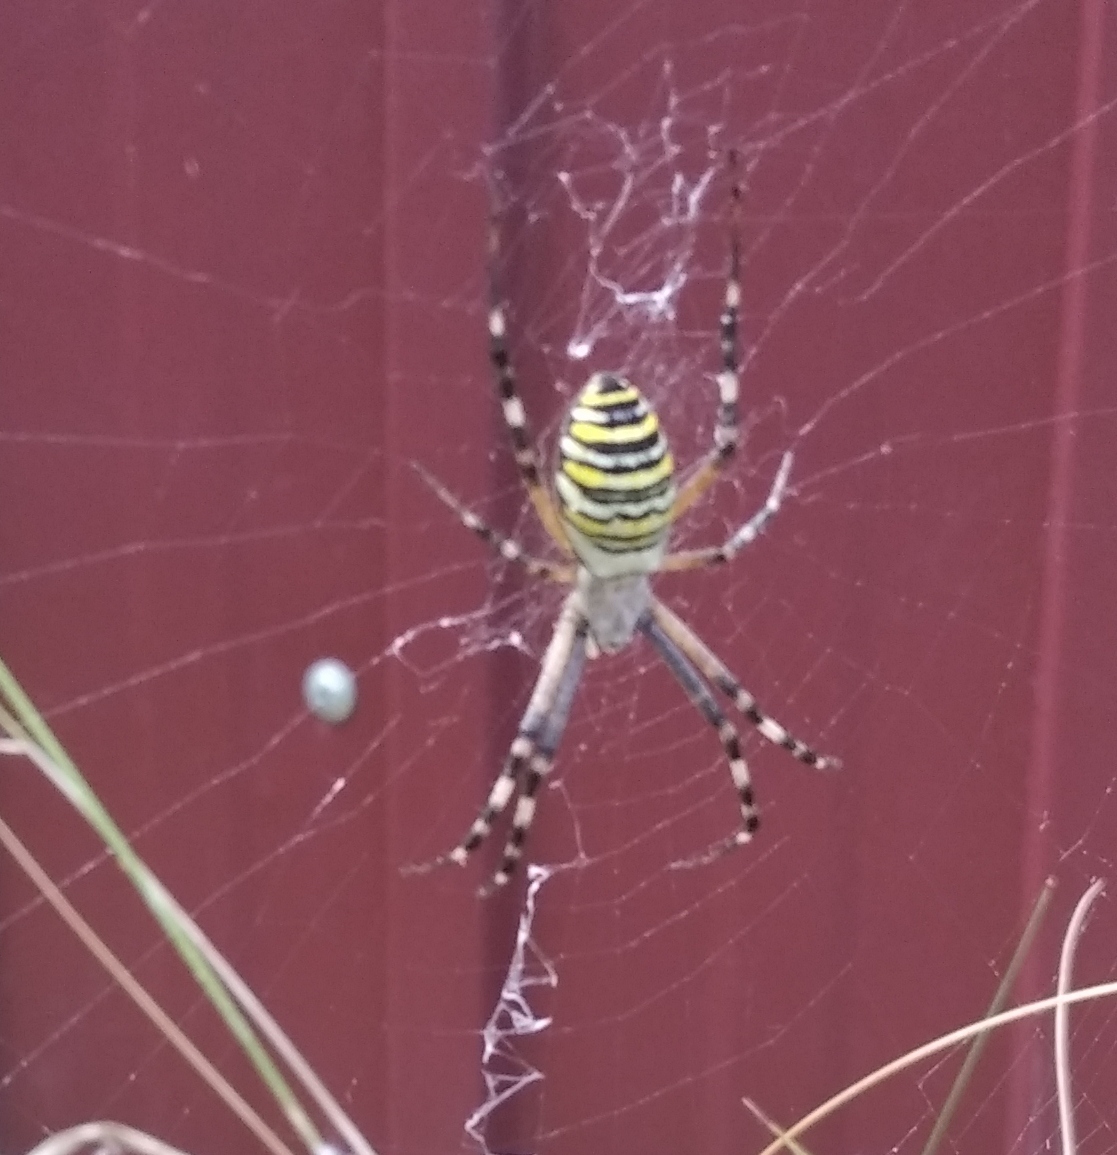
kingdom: Animalia
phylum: Arthropoda
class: Arachnida
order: Araneae
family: Araneidae
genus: Argiope
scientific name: Argiope bruennichi
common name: Wasp spider
